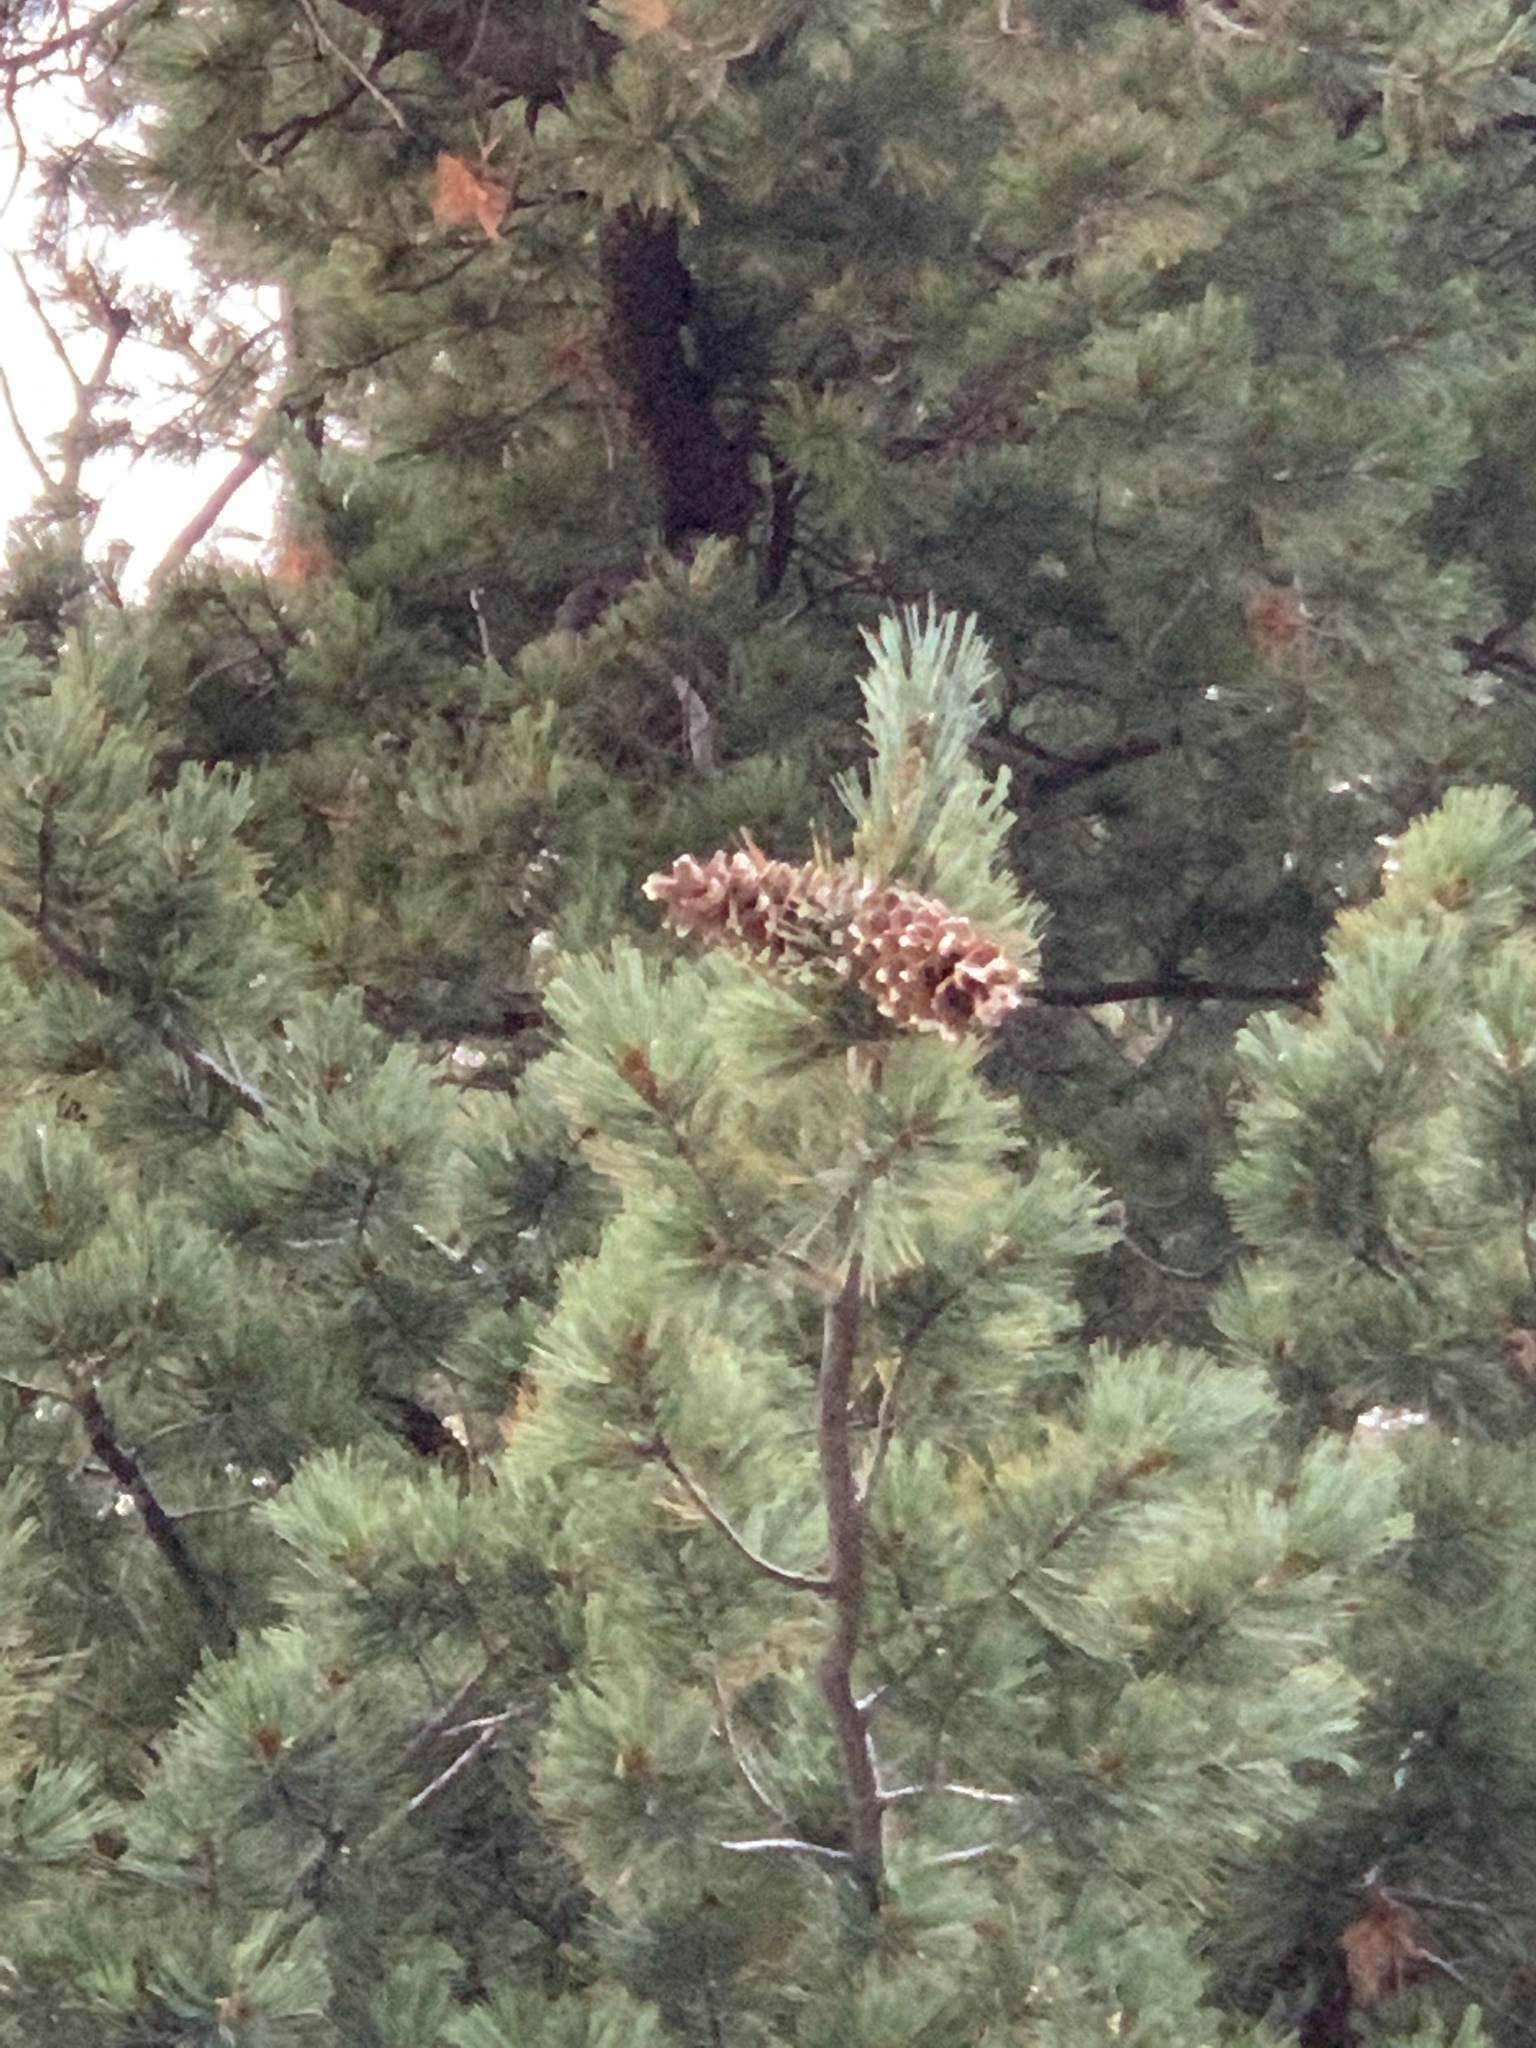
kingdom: Plantae
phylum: Tracheophyta
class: Pinopsida
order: Pinales
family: Pinaceae
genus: Pinus
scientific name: Pinus strobiformis
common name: Southwestern white pine
